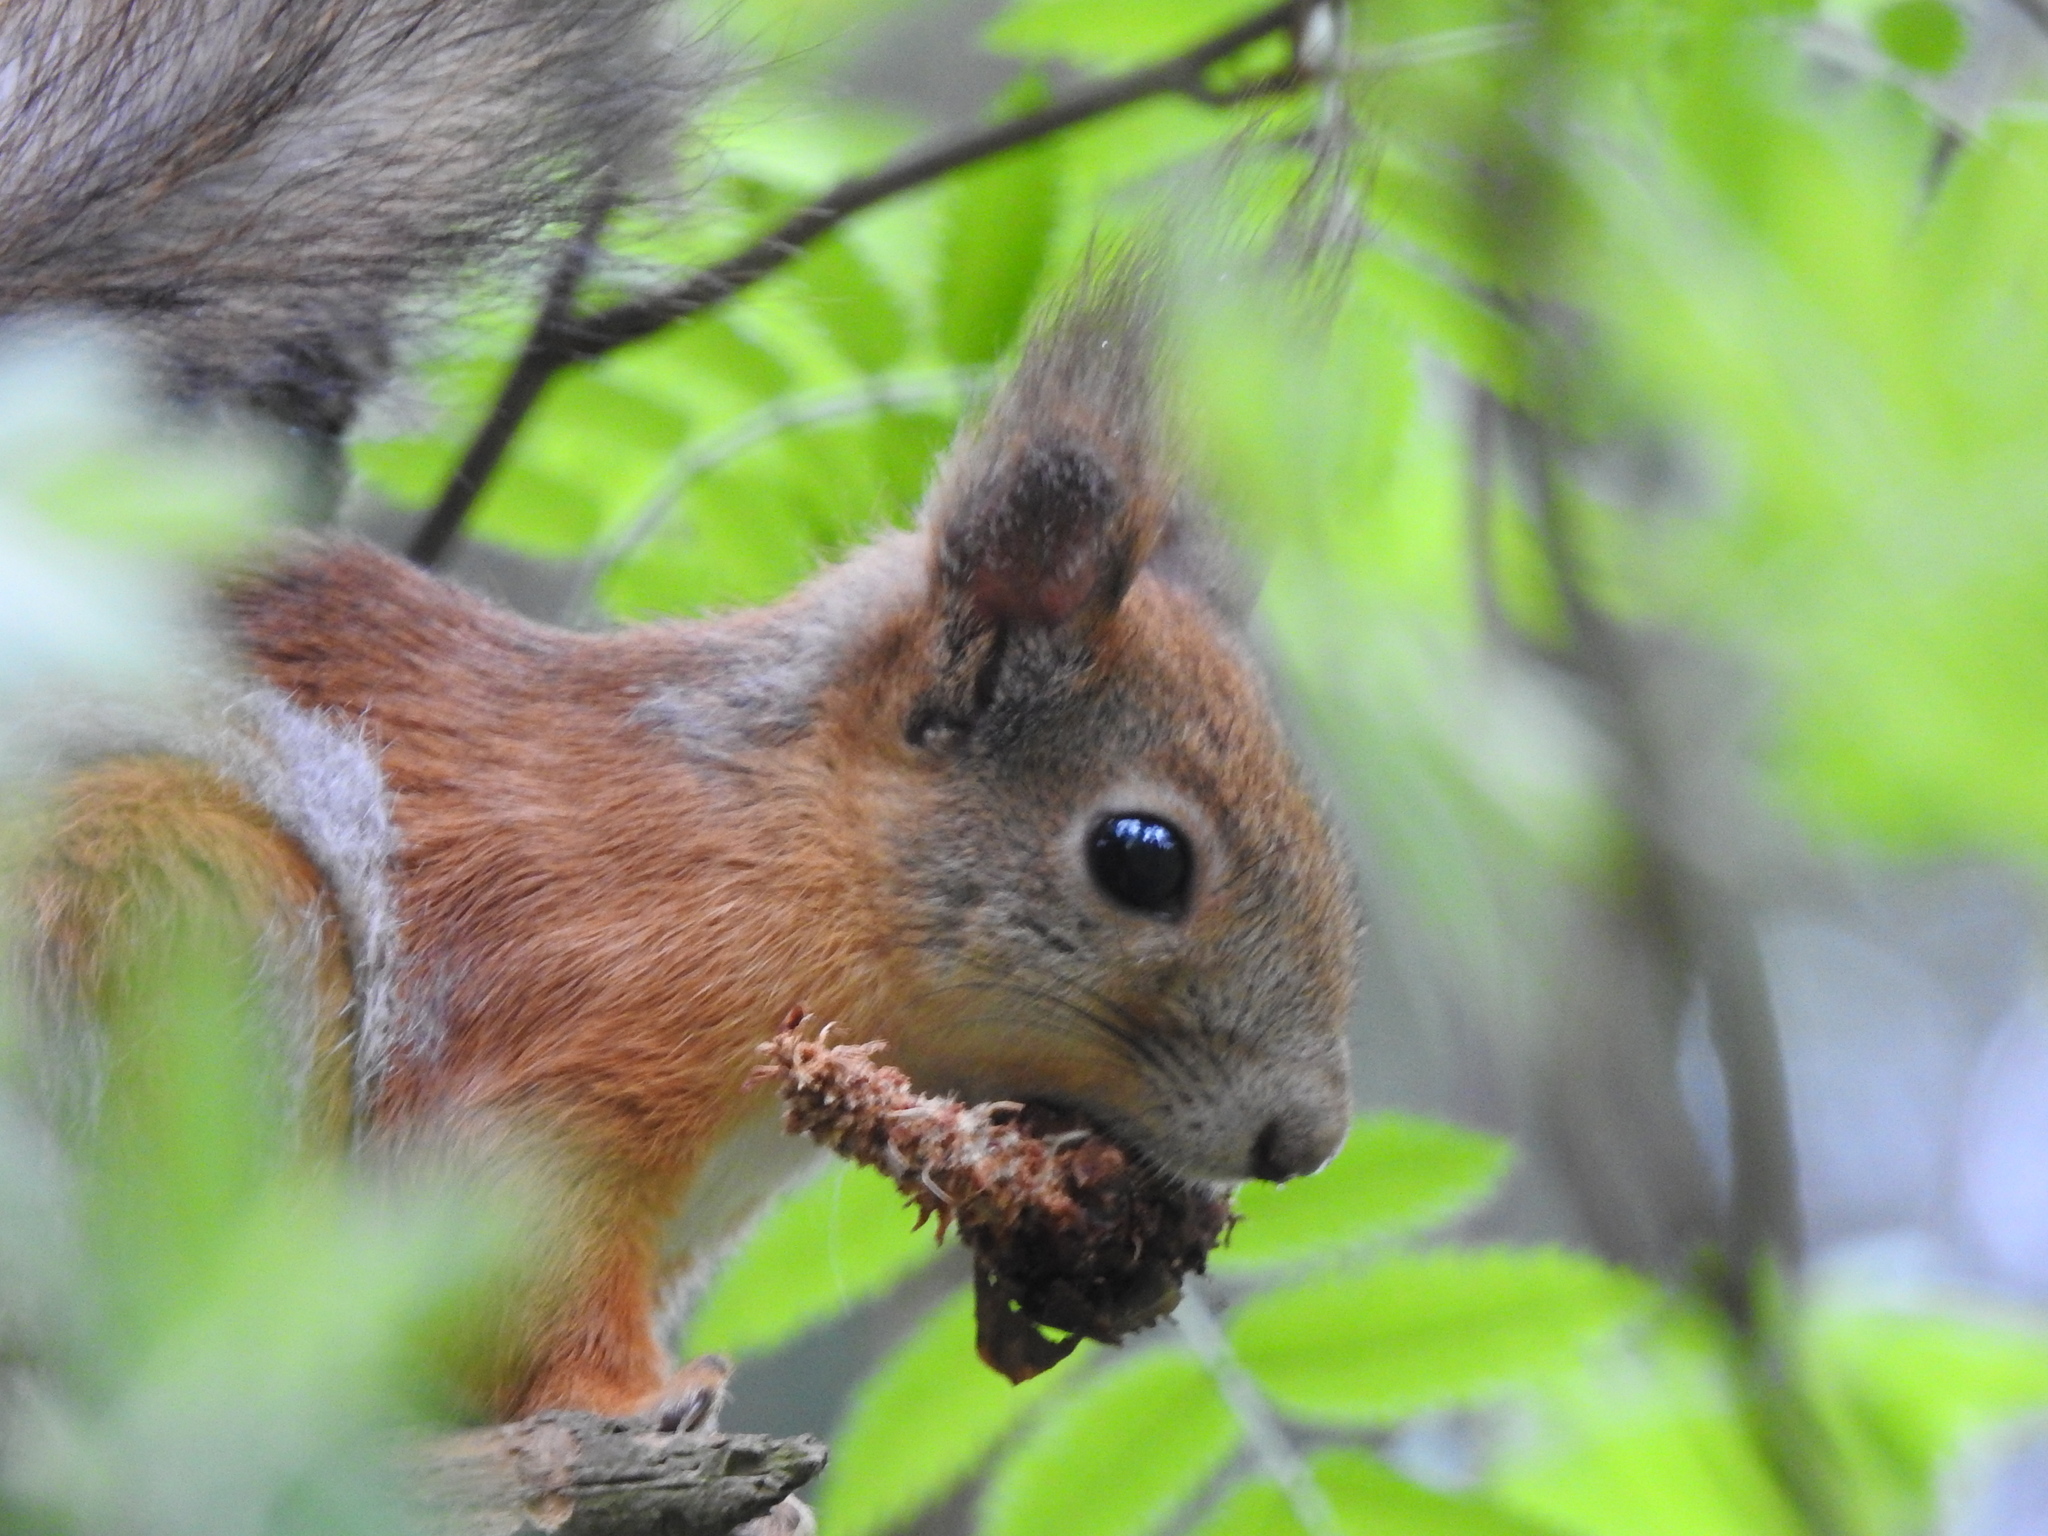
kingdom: Animalia
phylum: Chordata
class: Mammalia
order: Rodentia
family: Sciuridae
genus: Sciurus
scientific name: Sciurus vulgaris
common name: Eurasian red squirrel
